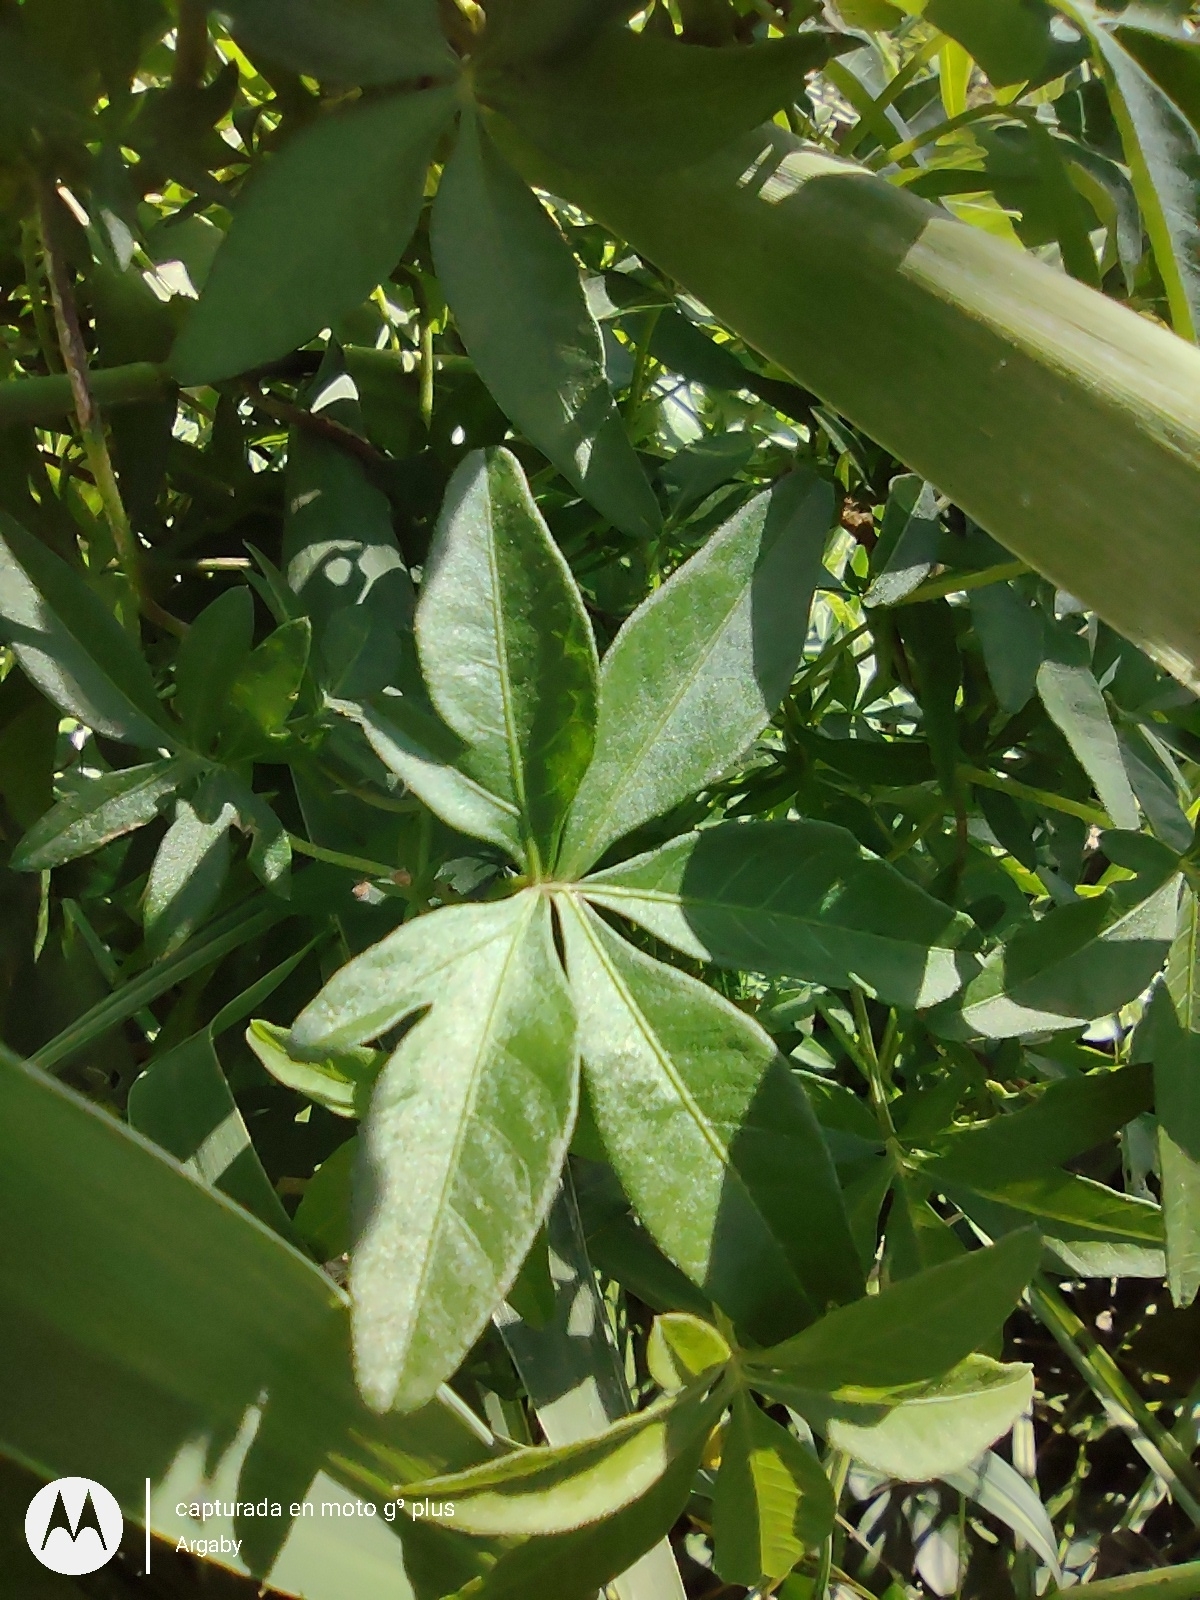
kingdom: Plantae
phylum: Tracheophyta
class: Magnoliopsida
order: Solanales
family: Convolvulaceae
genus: Ipomoea
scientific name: Ipomoea cairica
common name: Mile a minute vine
